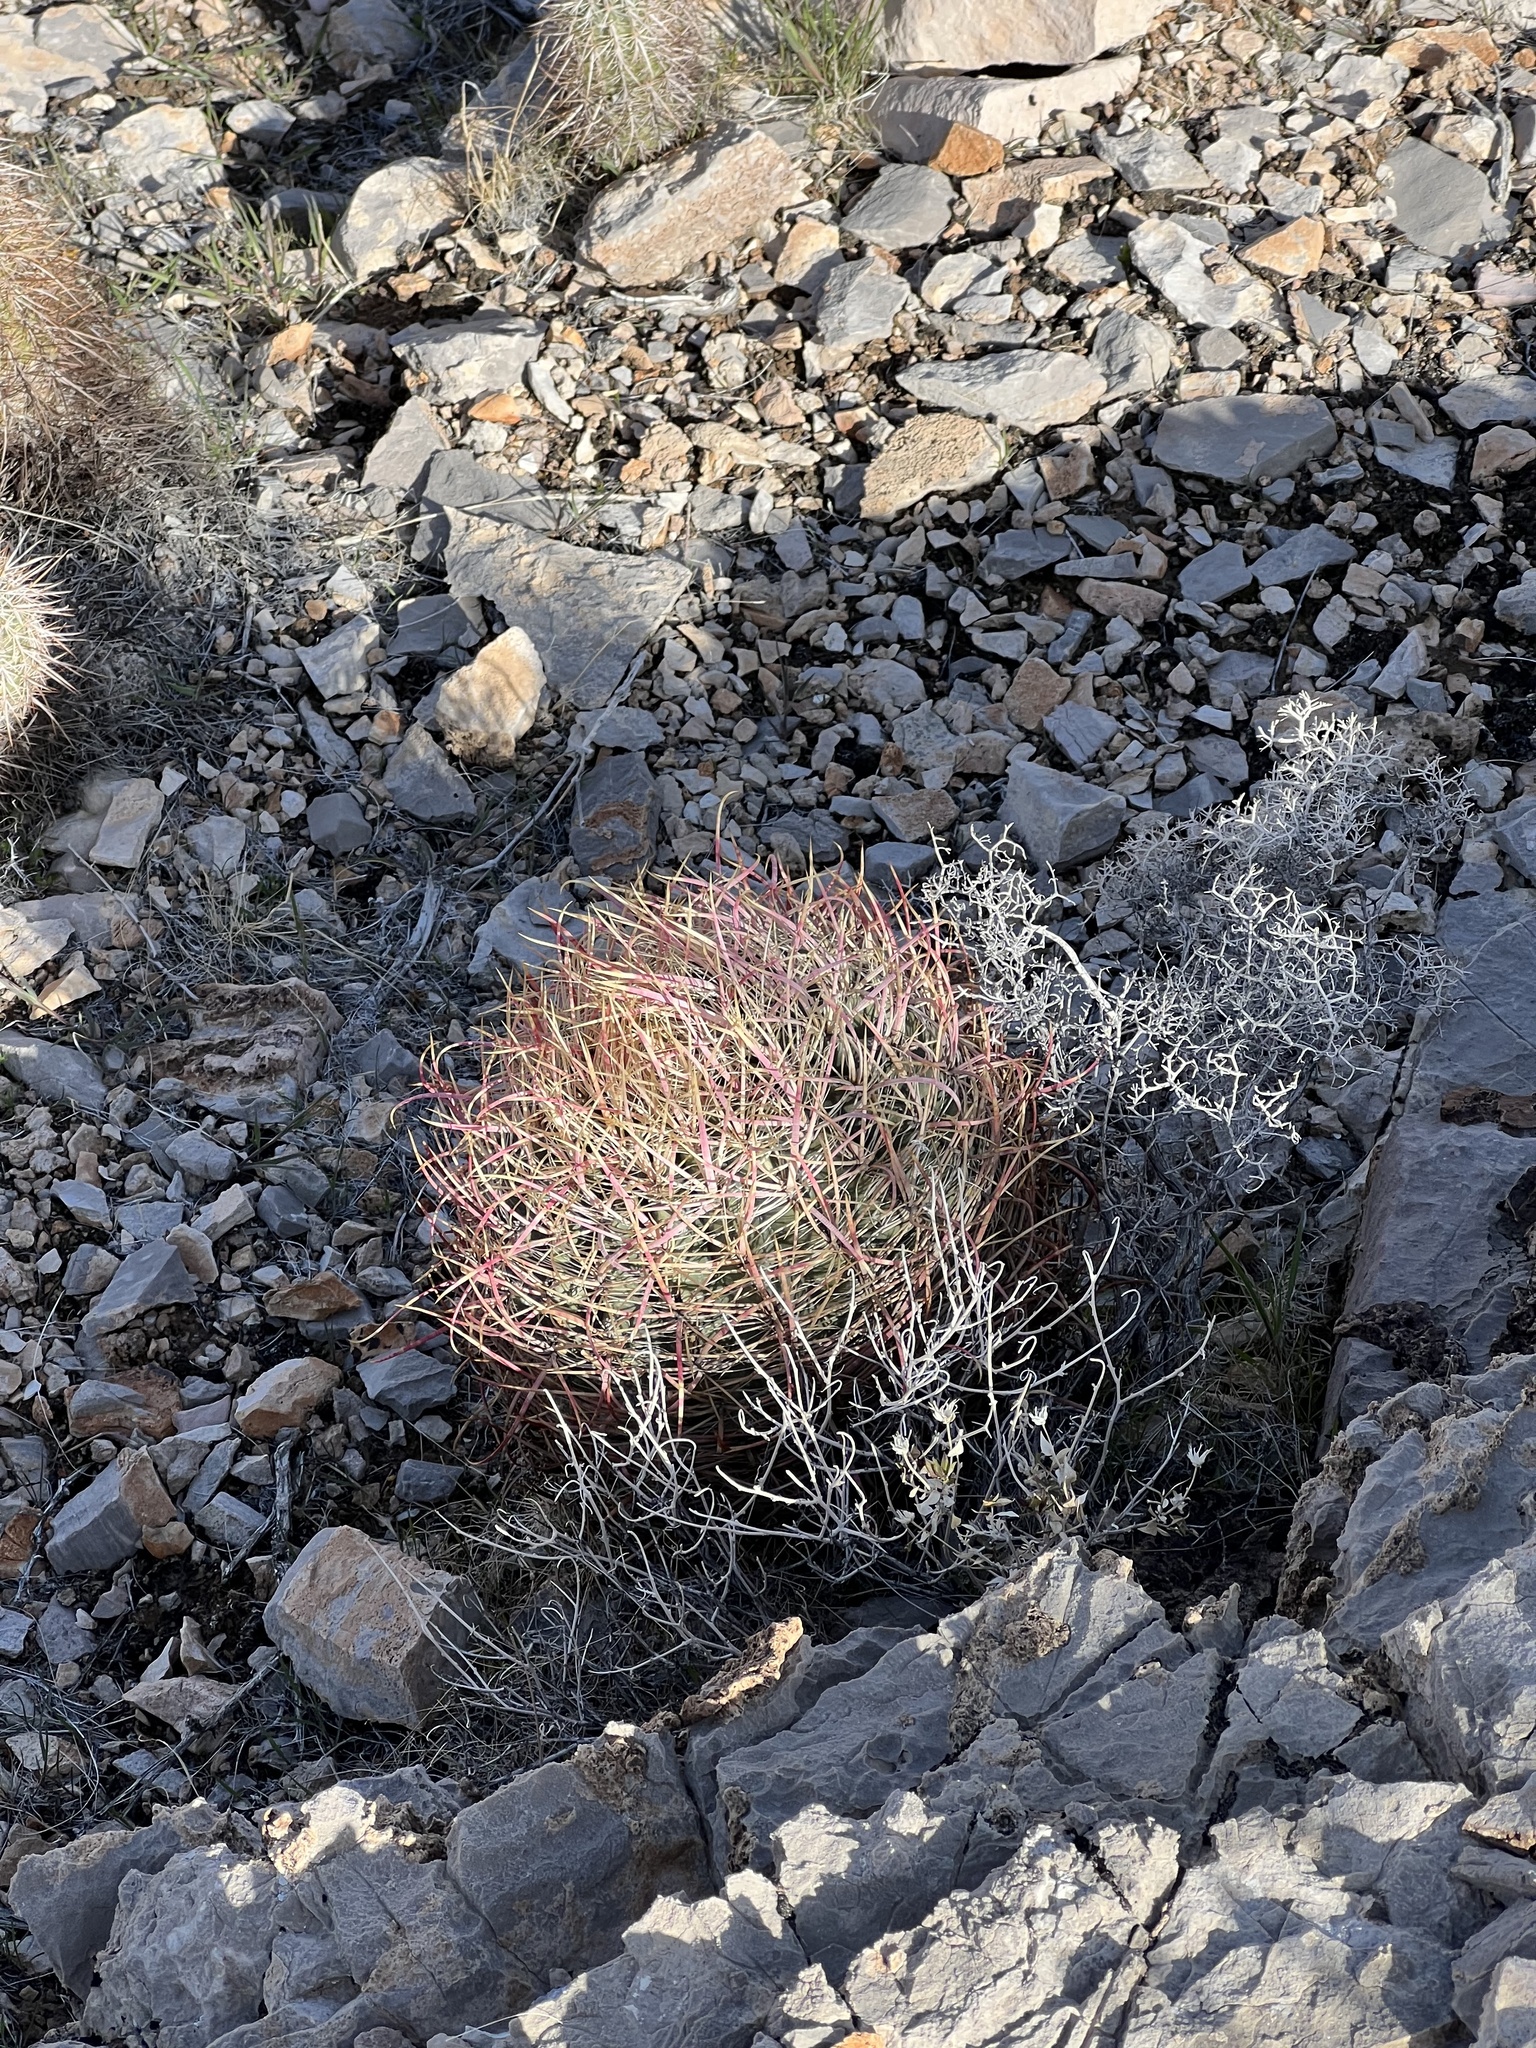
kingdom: Plantae
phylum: Tracheophyta
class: Magnoliopsida
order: Caryophyllales
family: Cactaceae
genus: Ferocactus
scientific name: Ferocactus cylindraceus
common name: California barrel cactus
